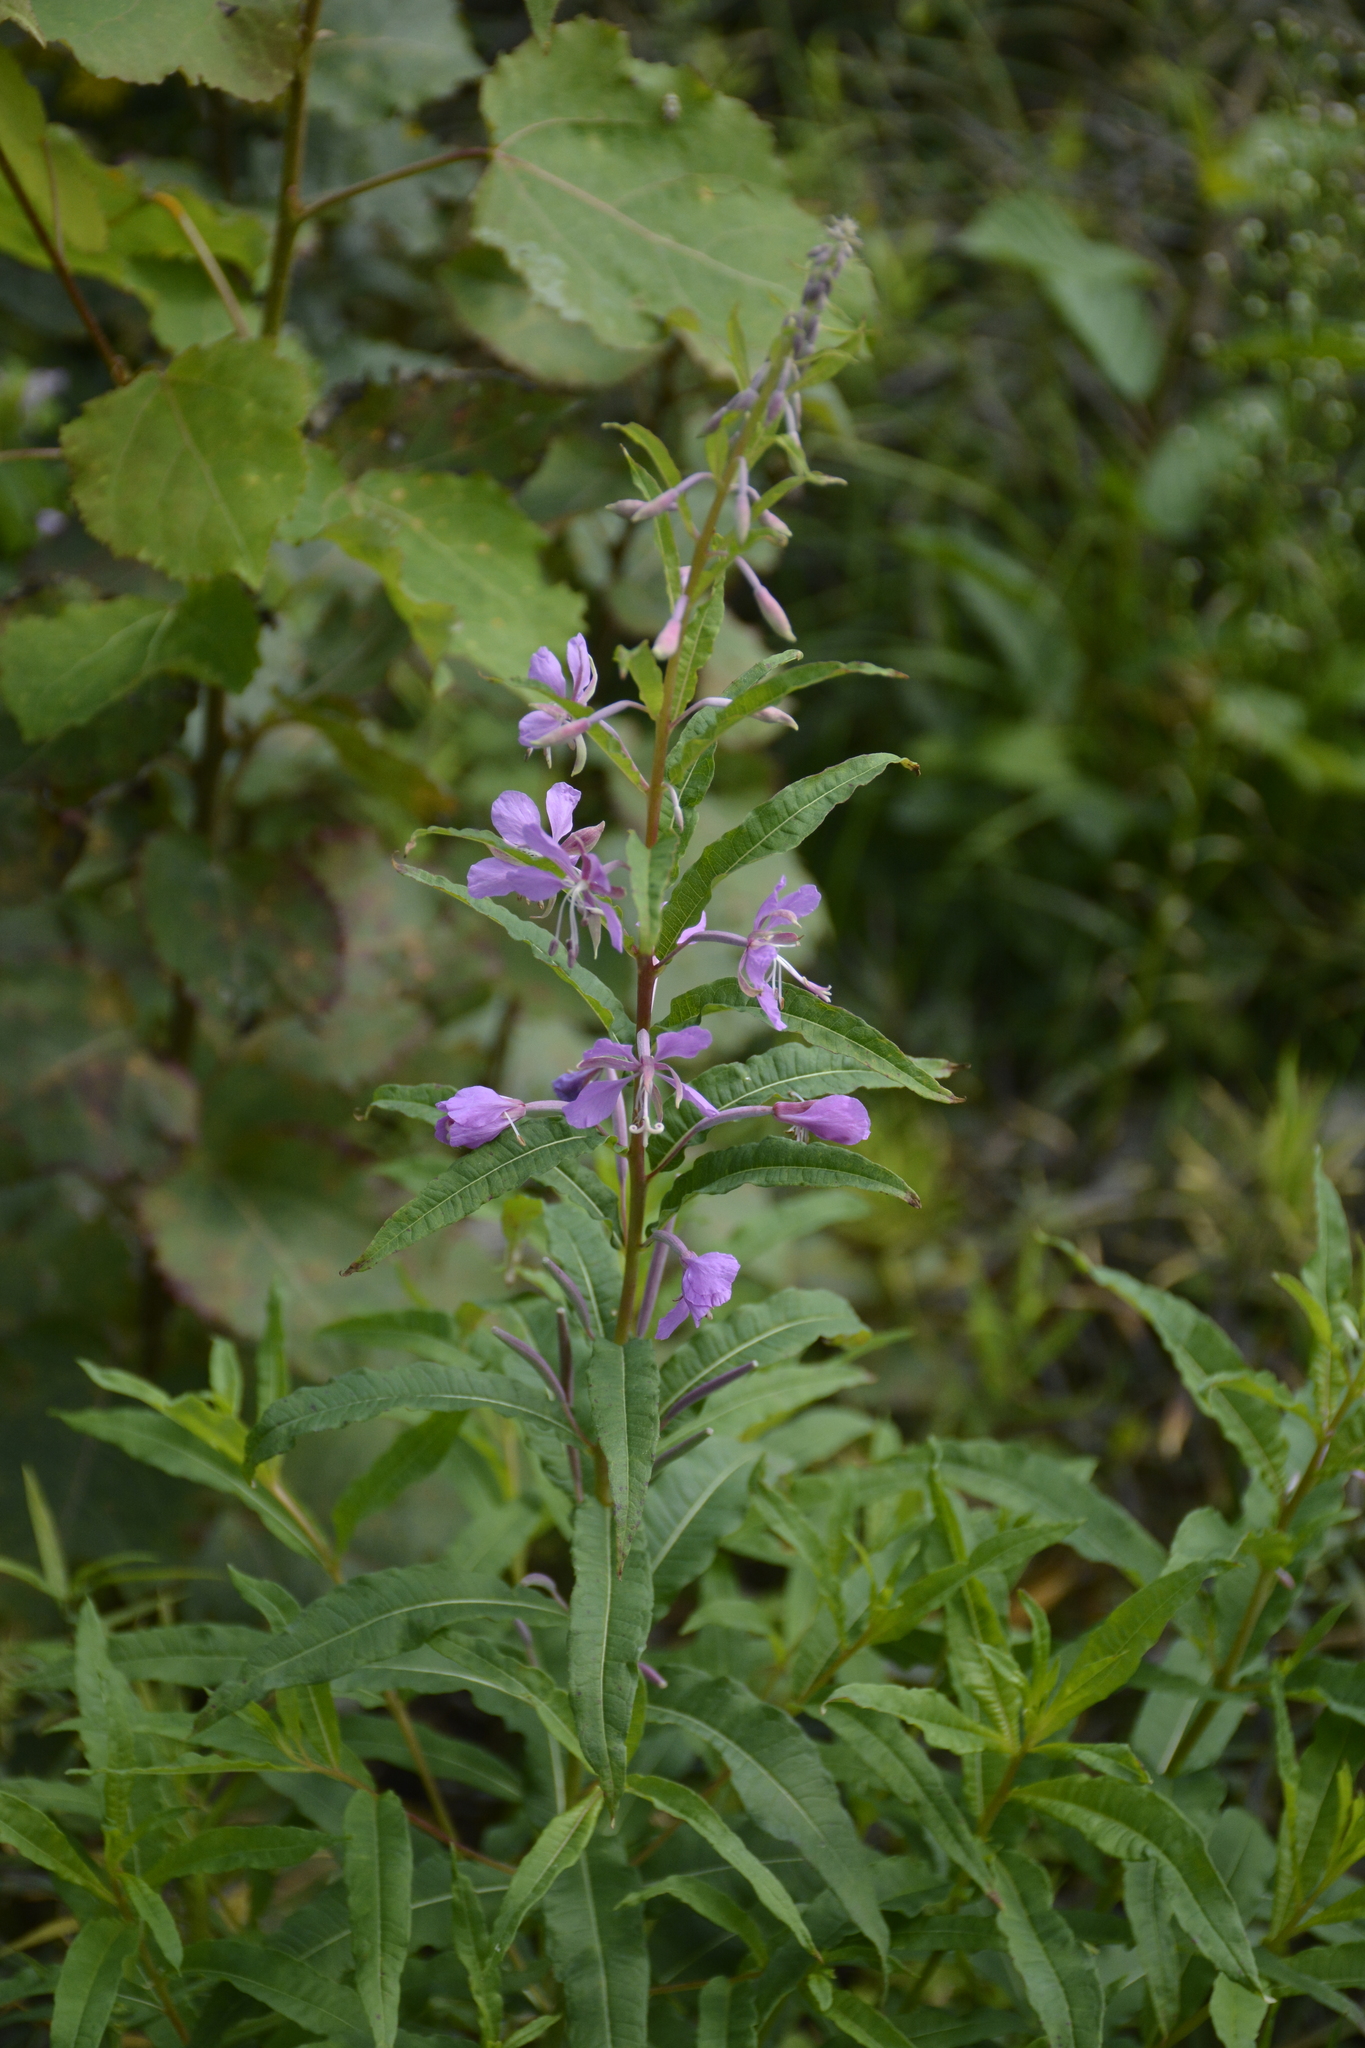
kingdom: Plantae
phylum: Tracheophyta
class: Magnoliopsida
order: Myrtales
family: Onagraceae
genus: Chamaenerion
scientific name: Chamaenerion angustifolium
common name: Fireweed
